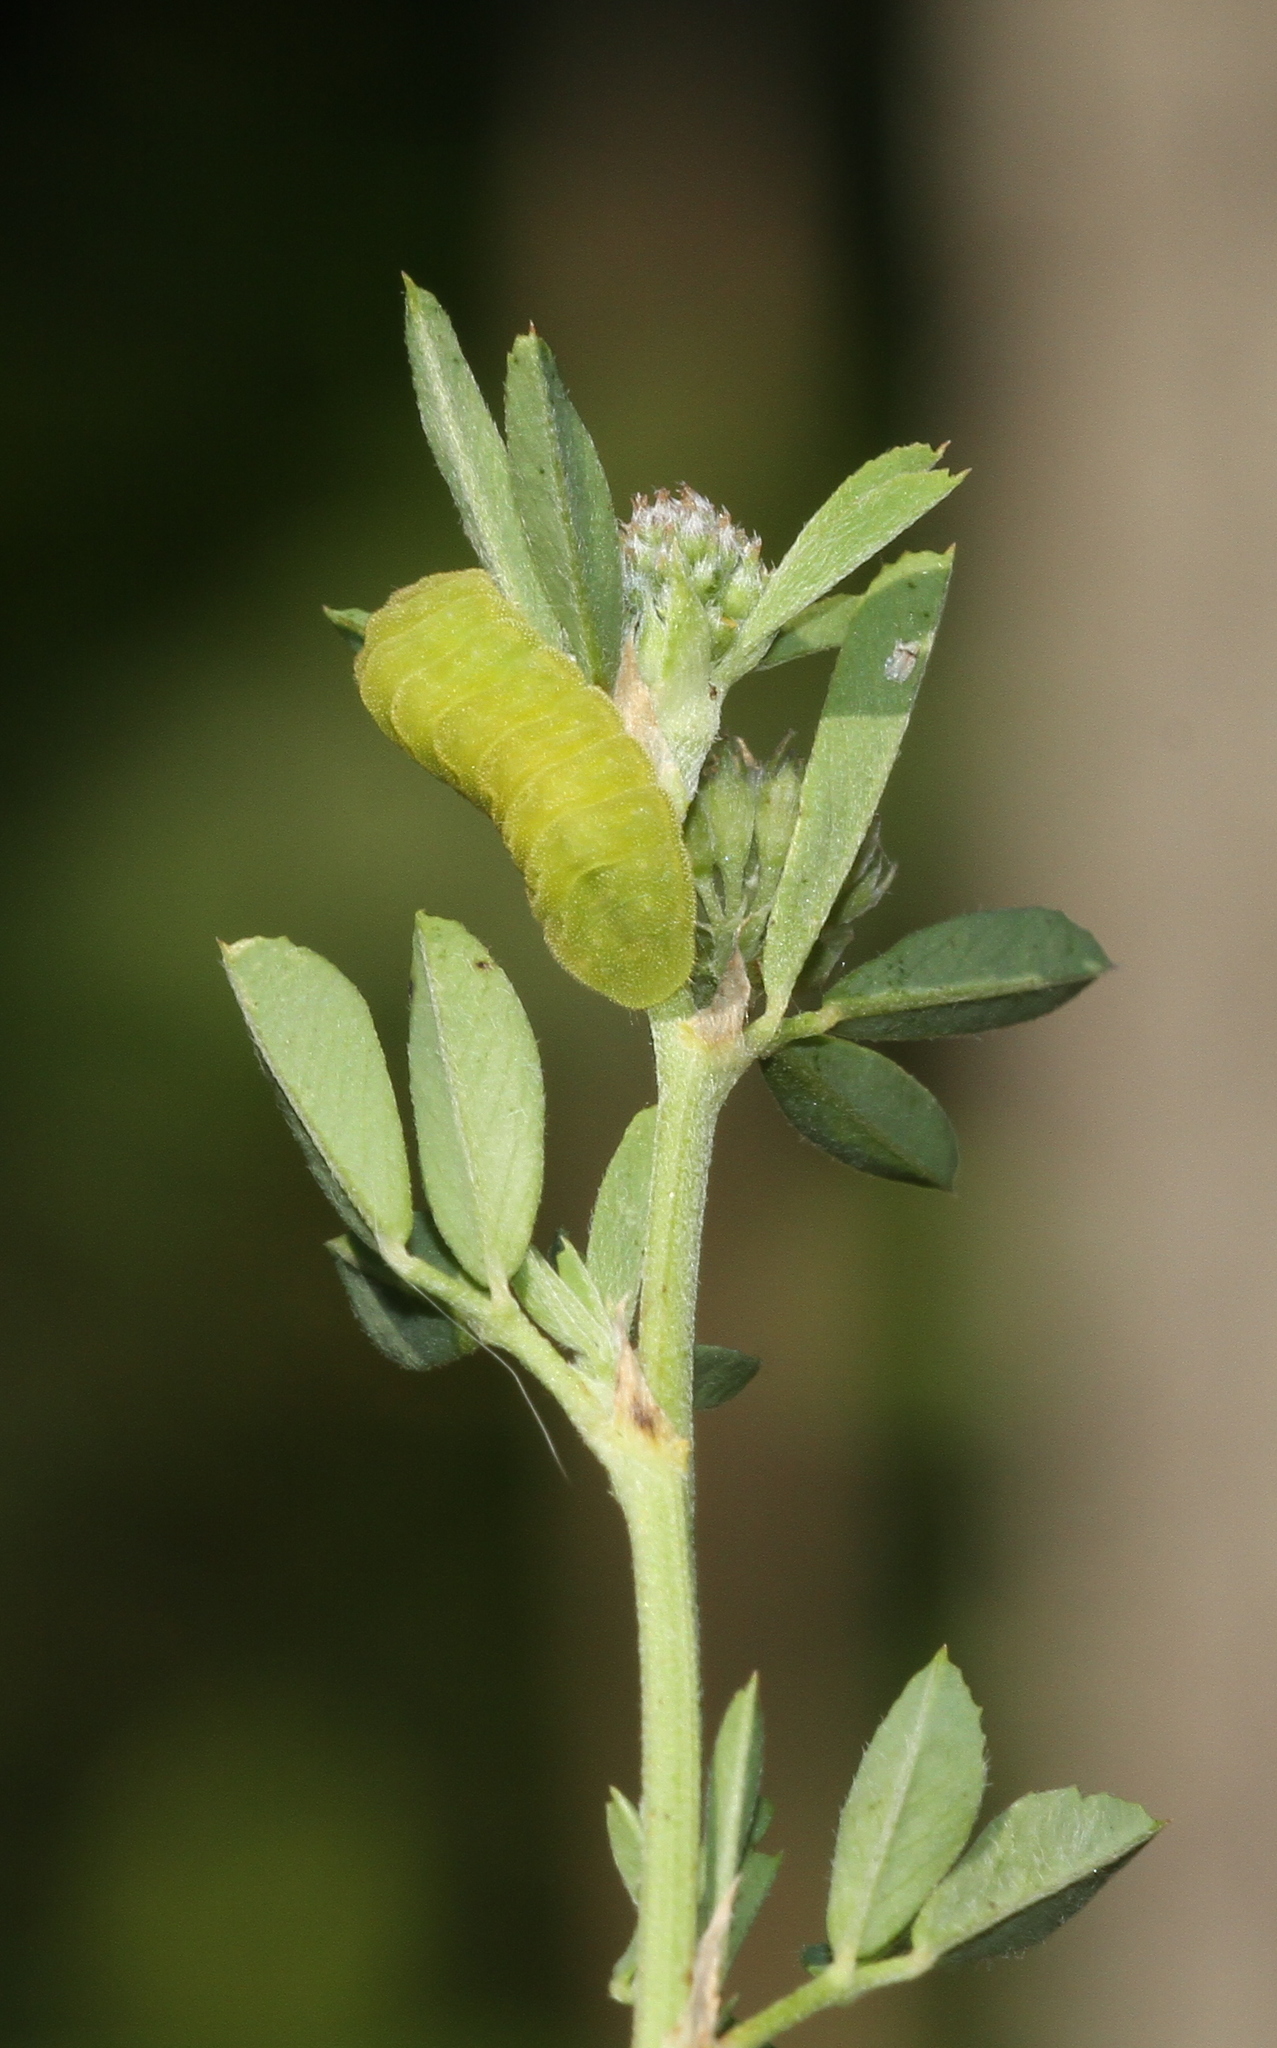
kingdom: Animalia
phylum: Arthropoda
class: Insecta
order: Lepidoptera
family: Lycaenidae
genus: Celastrina
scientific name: Celastrina argiolus
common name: Holly blue
